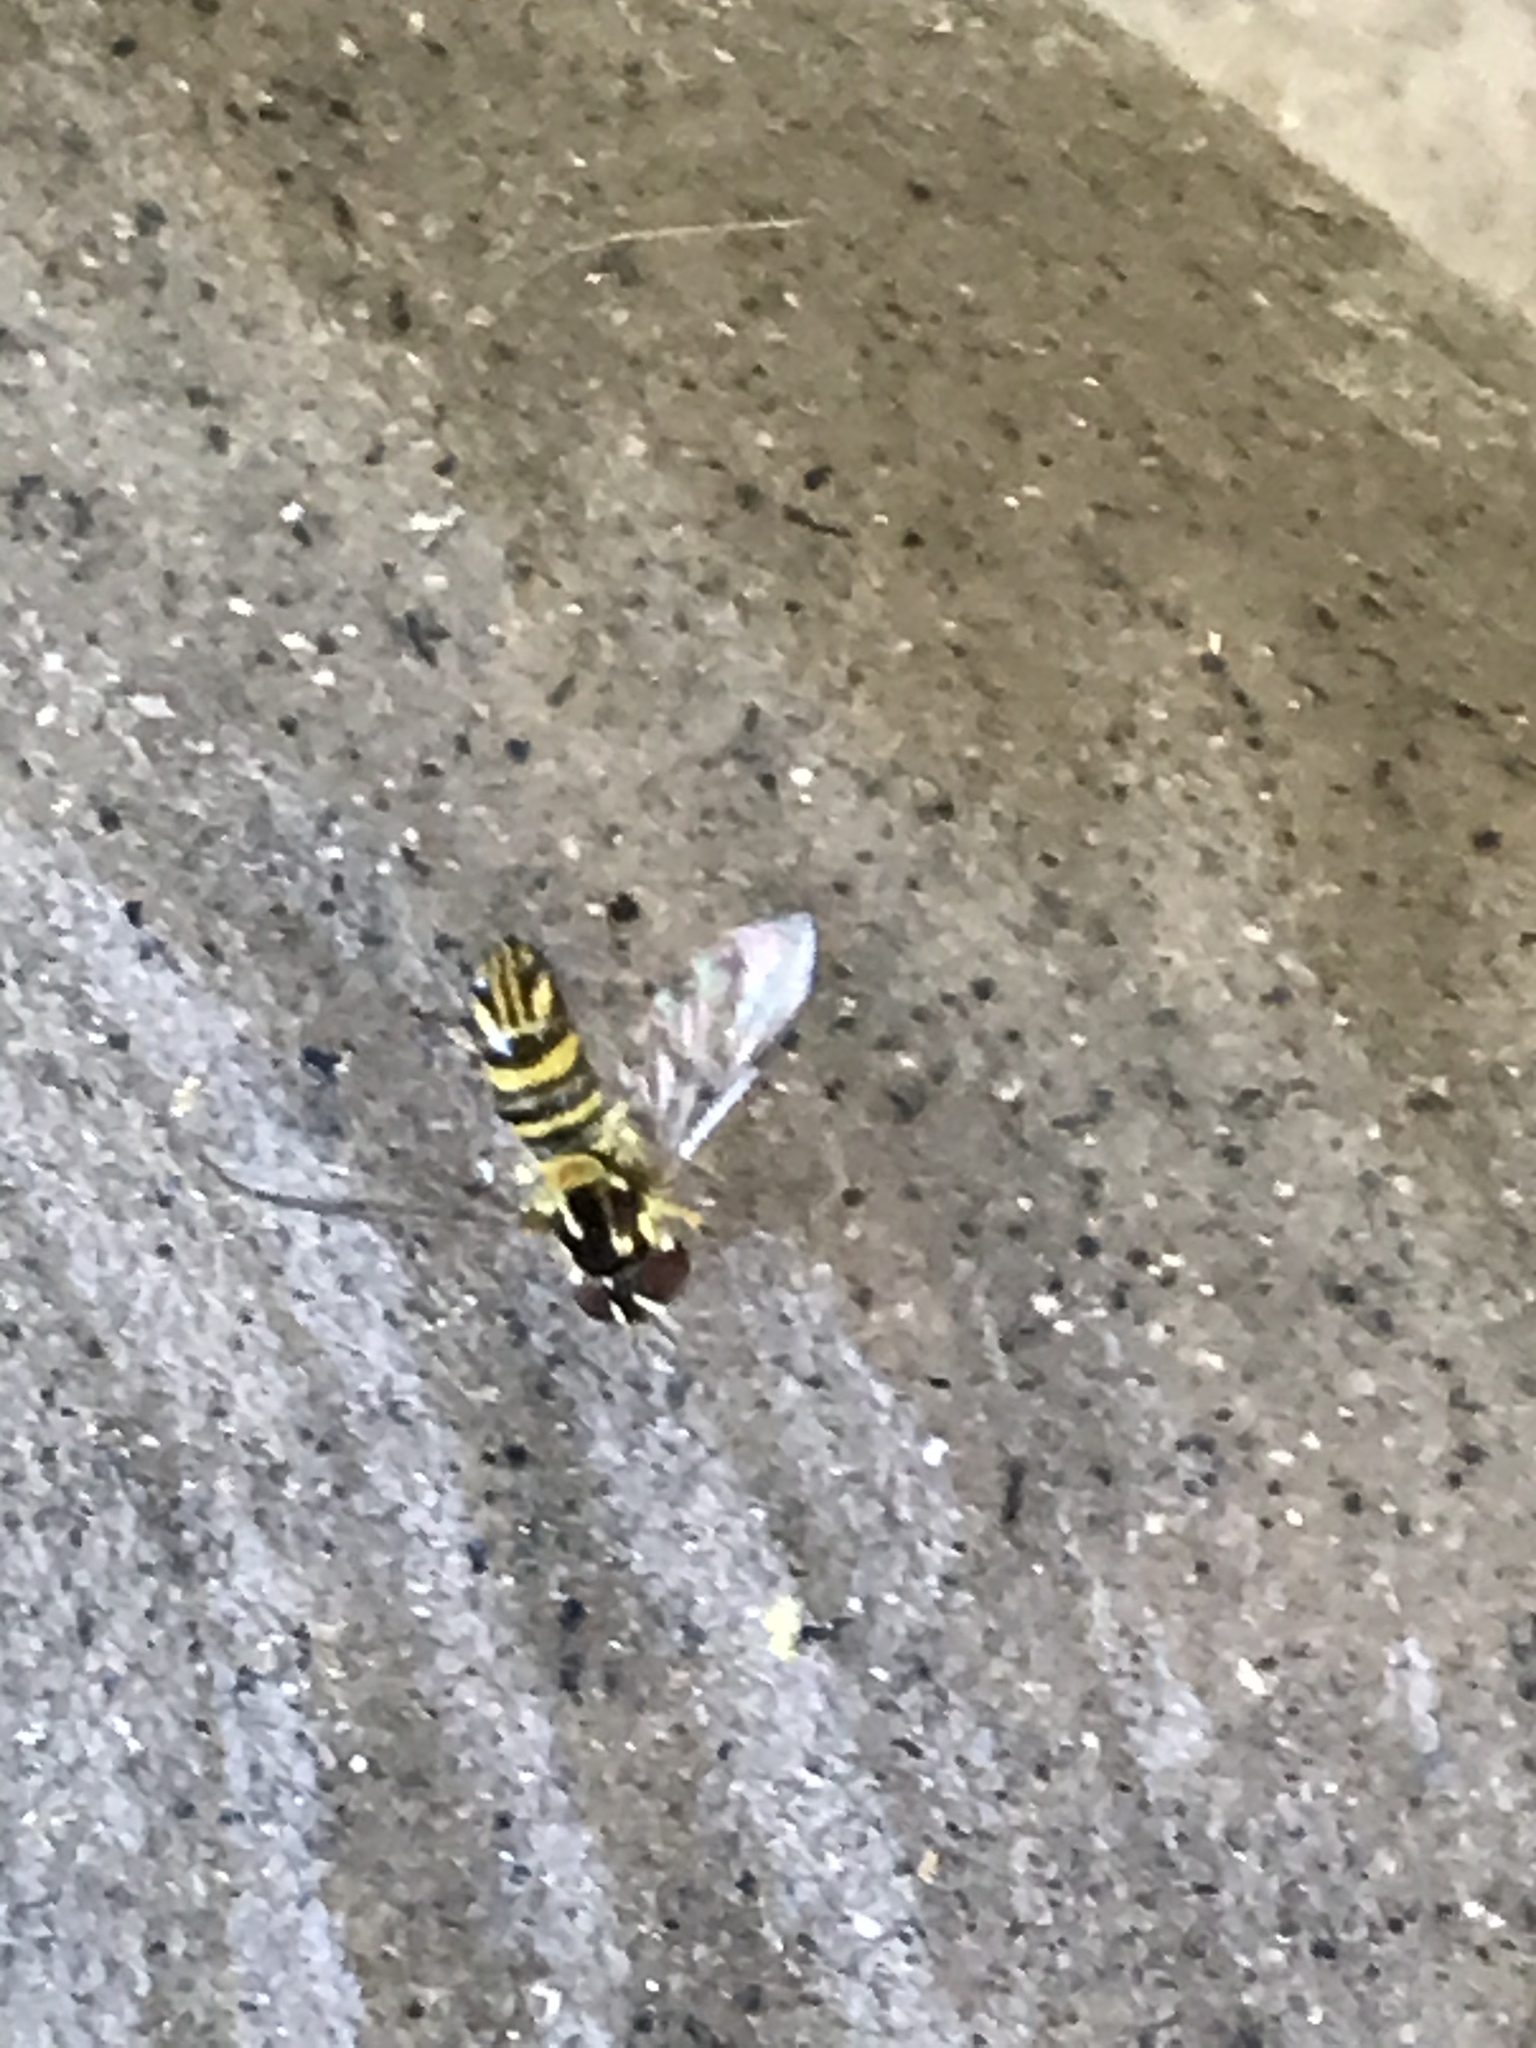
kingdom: Animalia
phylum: Arthropoda
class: Insecta
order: Diptera
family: Syrphidae
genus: Allograpta
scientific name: Allograpta obliqua
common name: Common oblique syrphid
